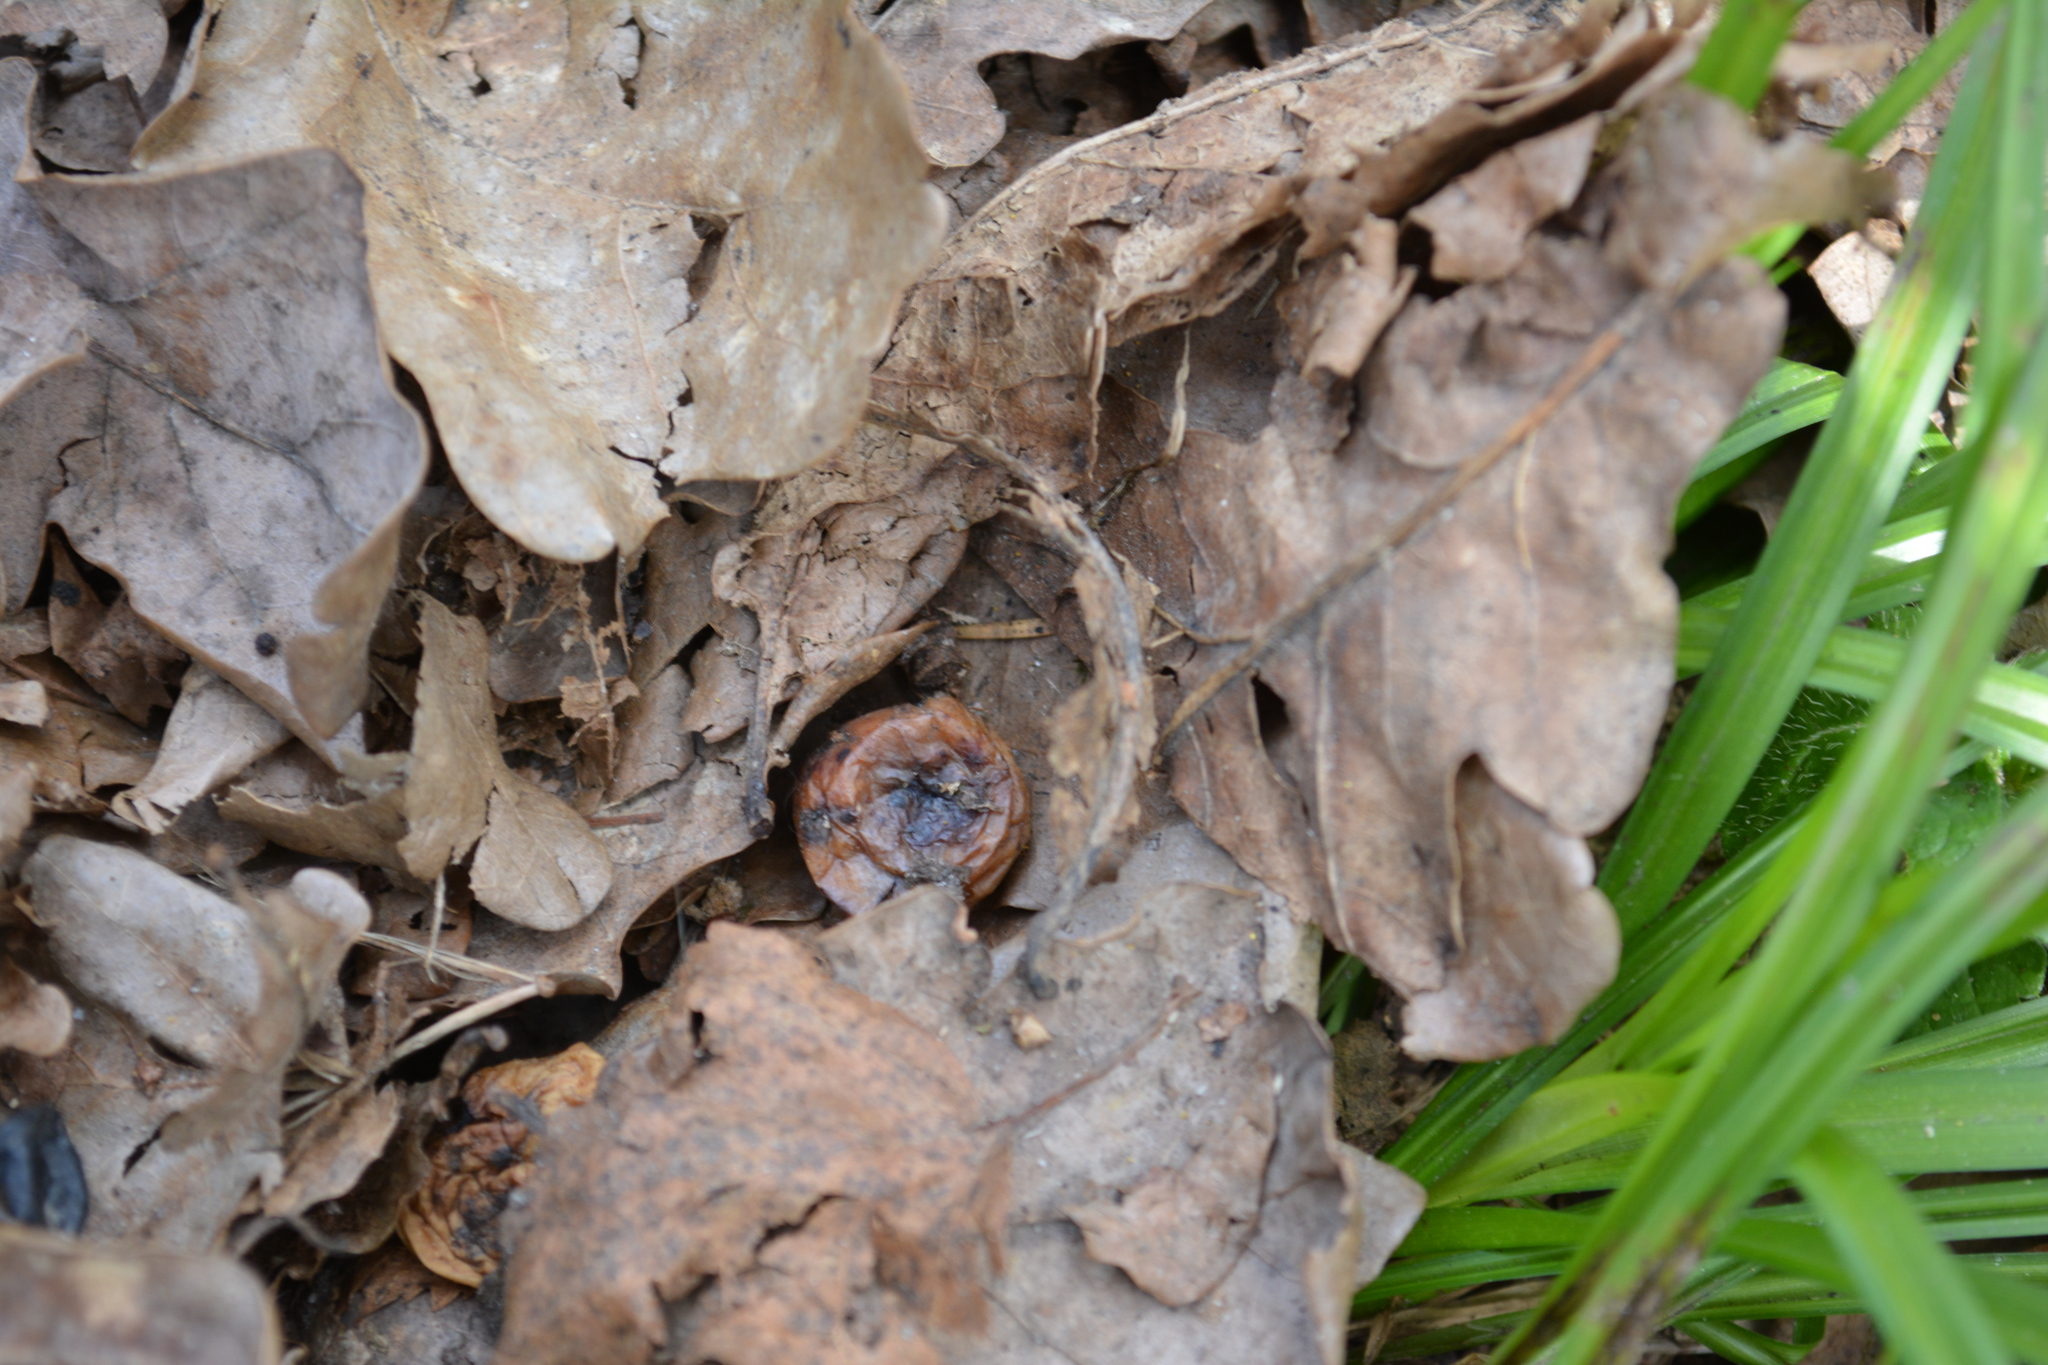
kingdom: Animalia
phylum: Arthropoda
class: Insecta
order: Hymenoptera
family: Cynipidae
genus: Cynips
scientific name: Cynips quercusfolii
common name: Cherry gall
